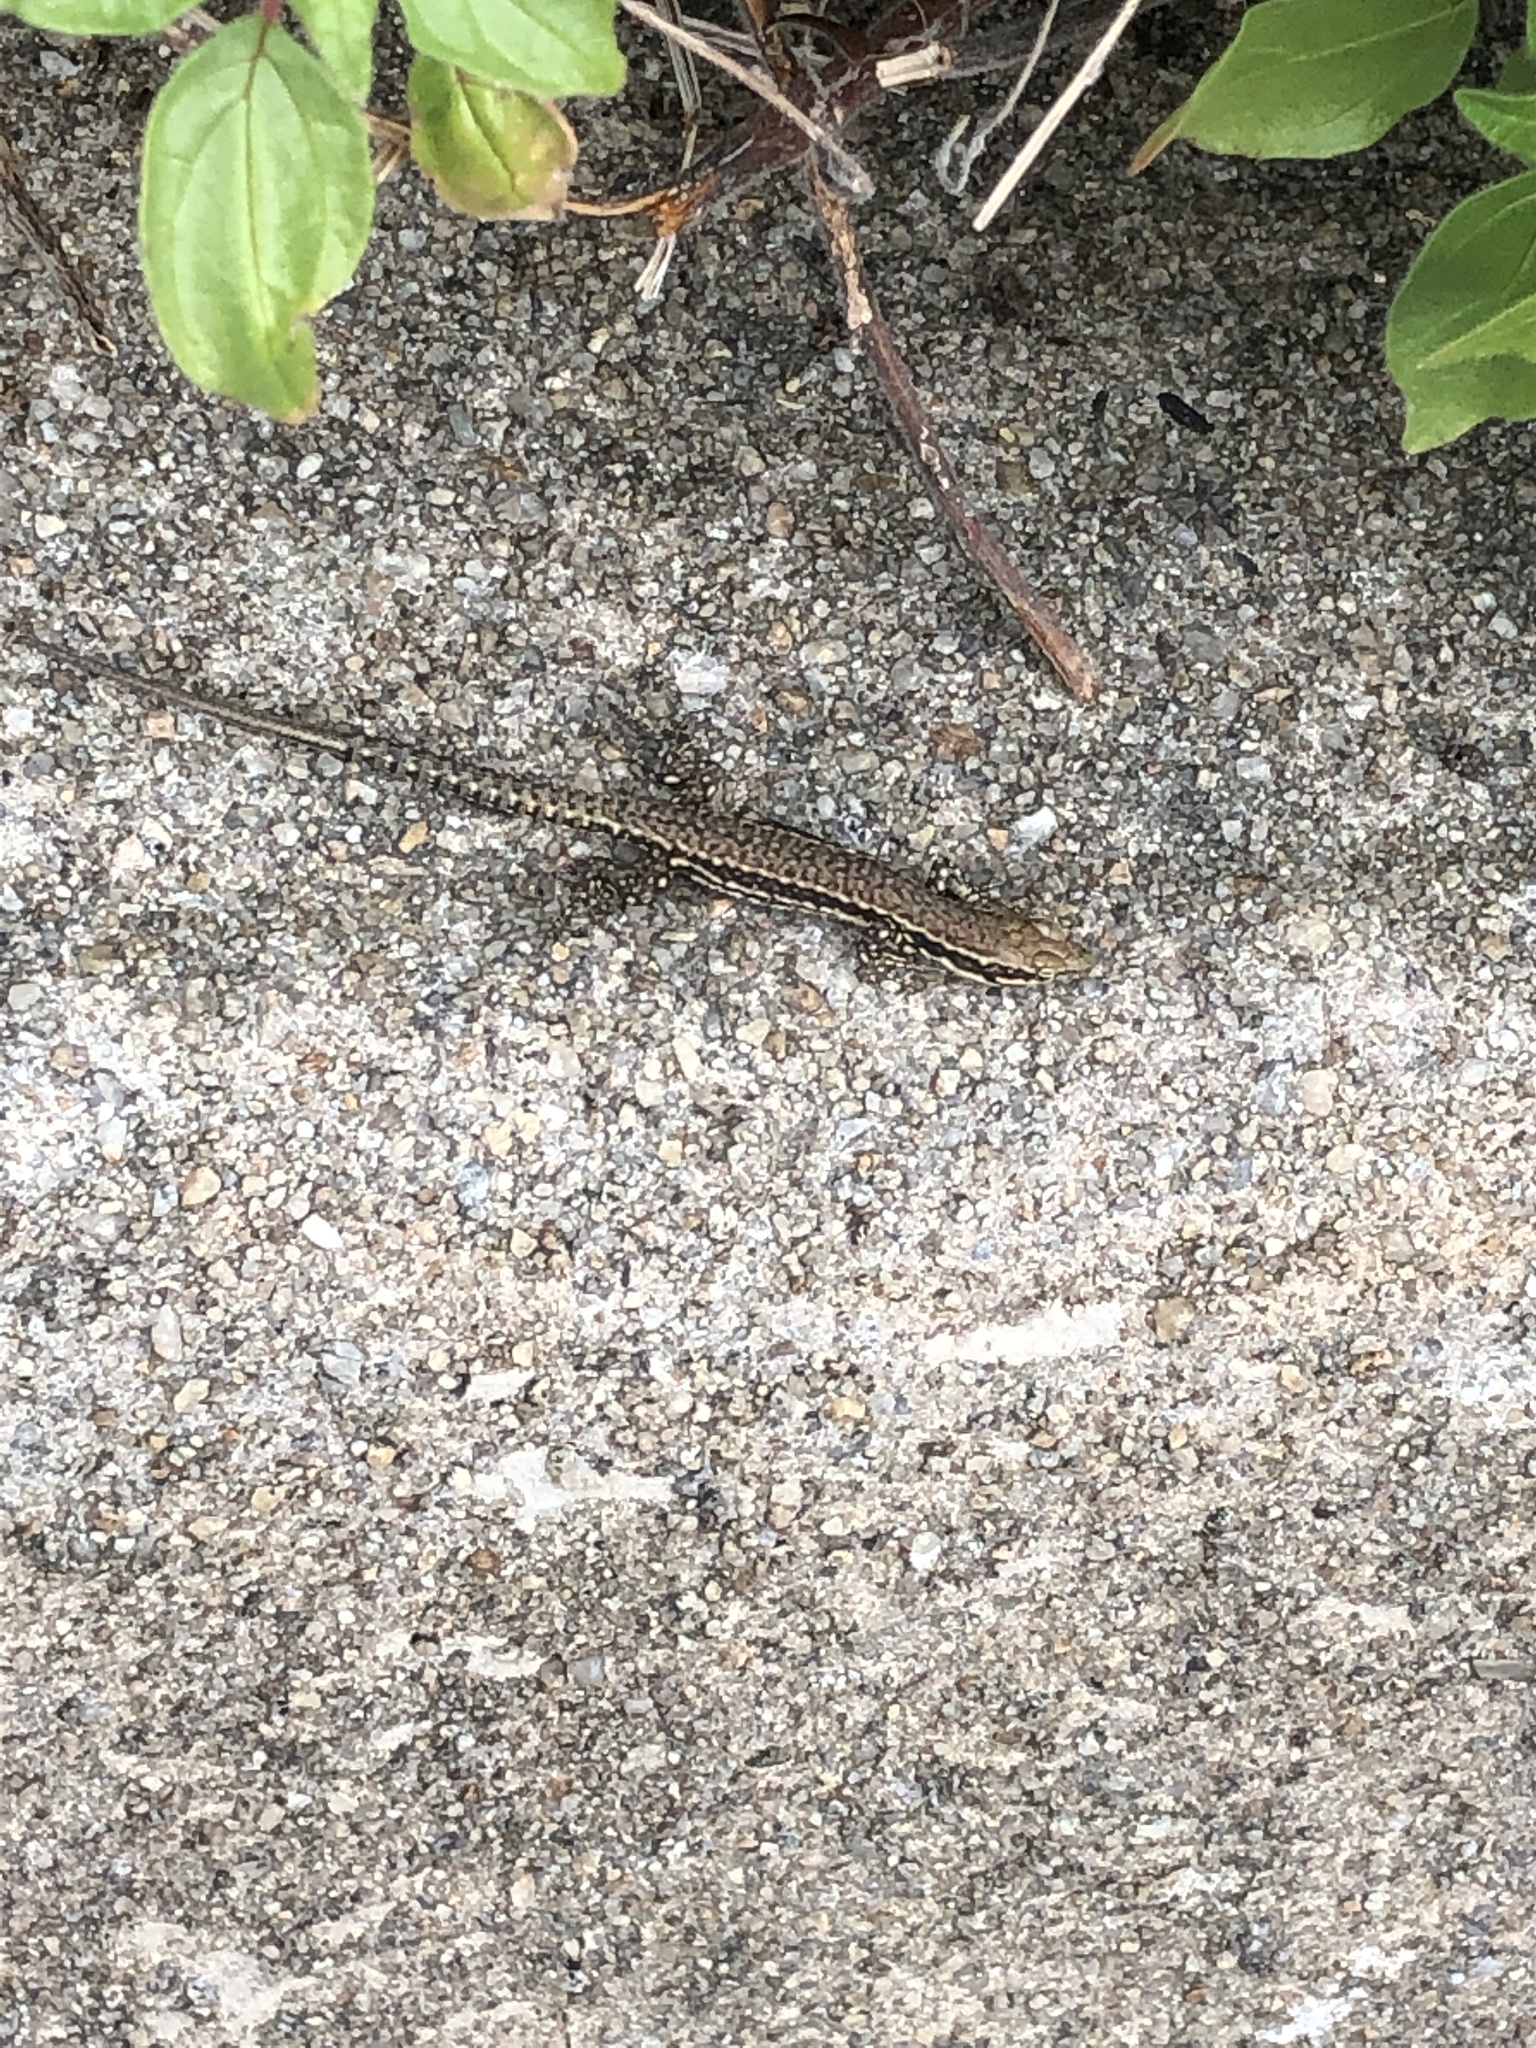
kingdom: Animalia
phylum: Chordata
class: Squamata
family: Lacertidae
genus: Podarcis
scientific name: Podarcis muralis
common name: Common wall lizard
